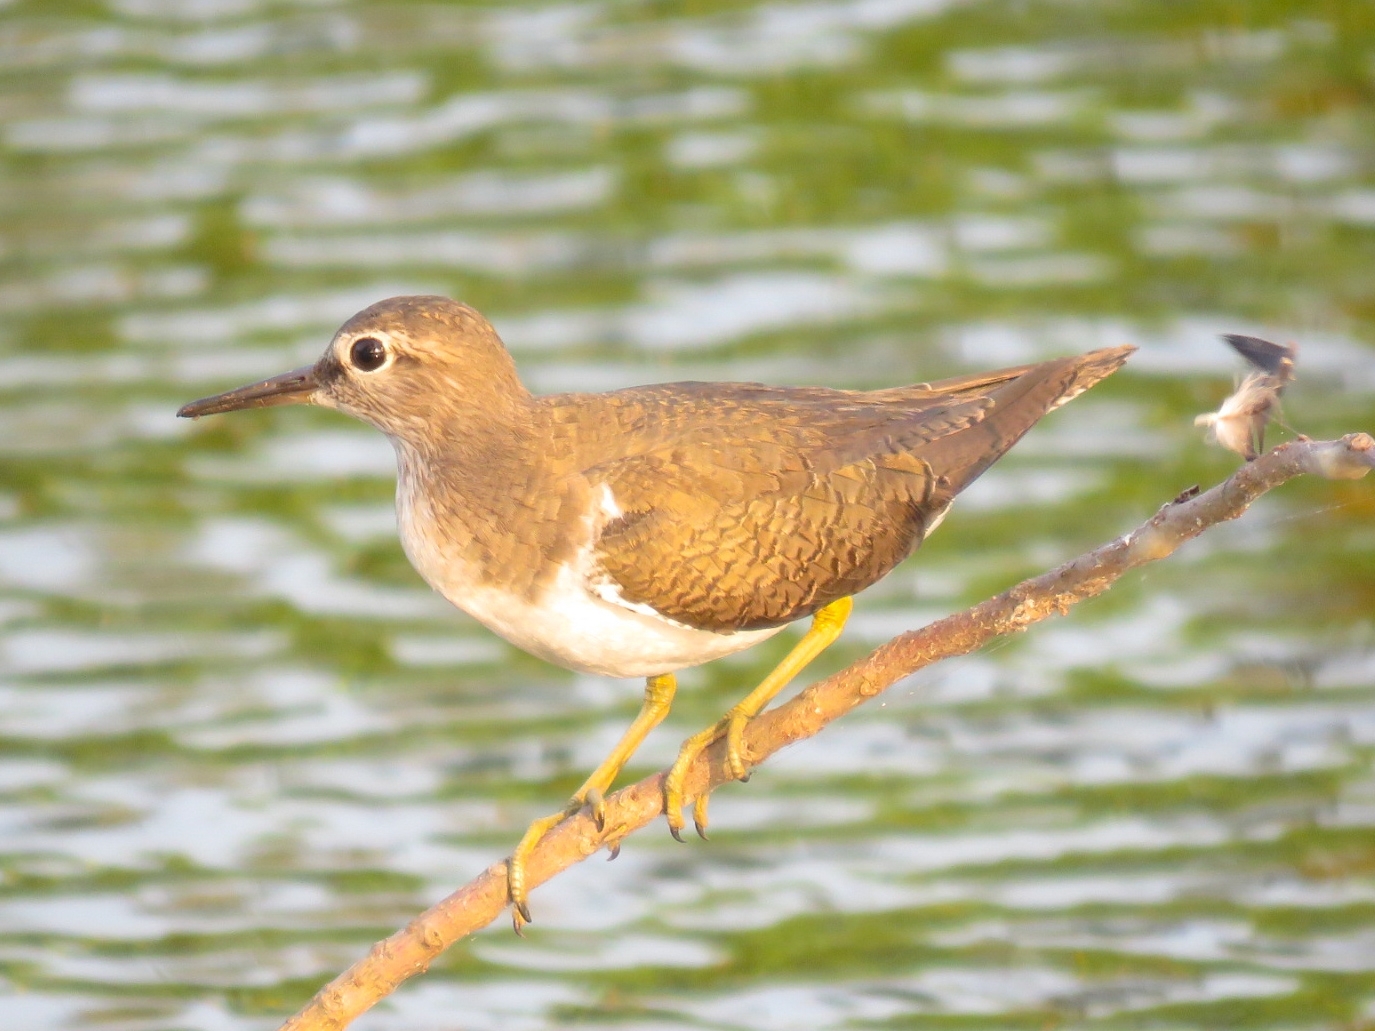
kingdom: Animalia
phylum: Chordata
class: Aves
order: Charadriiformes
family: Scolopacidae
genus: Actitis
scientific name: Actitis hypoleucos
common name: Common sandpiper
